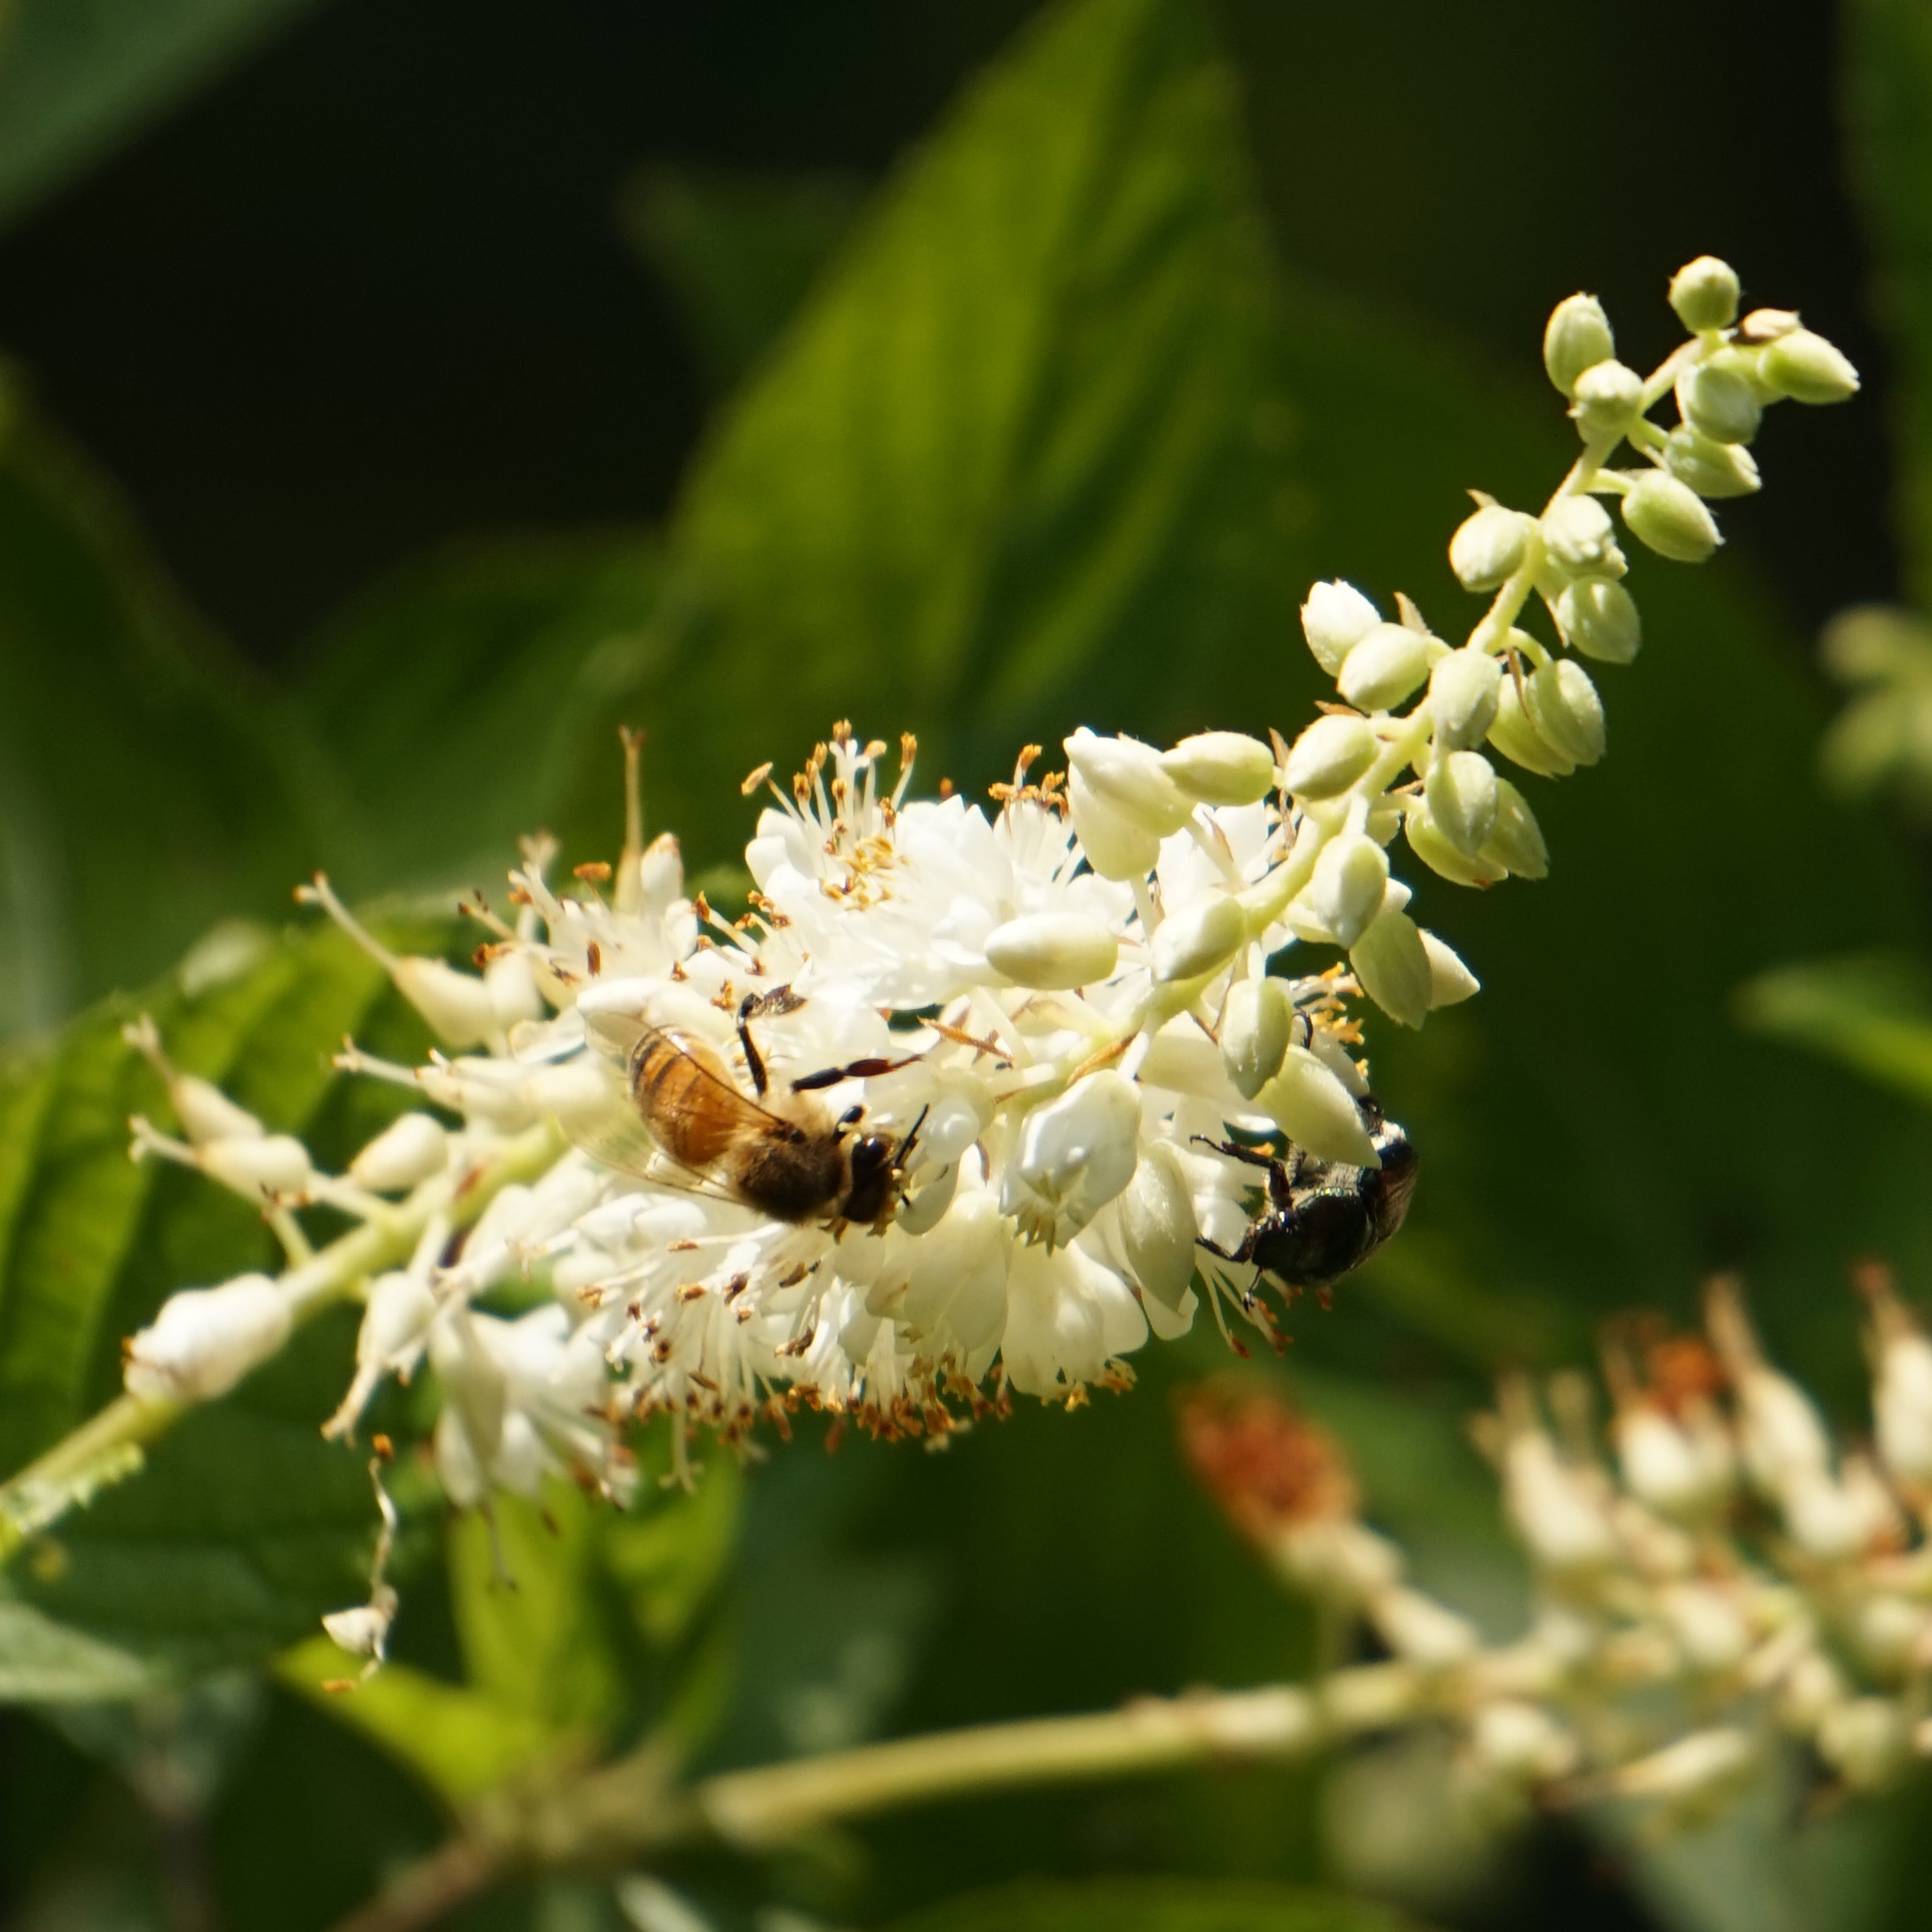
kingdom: Animalia
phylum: Arthropoda
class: Insecta
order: Hymenoptera
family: Apidae
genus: Apis
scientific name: Apis mellifera
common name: Honey bee
